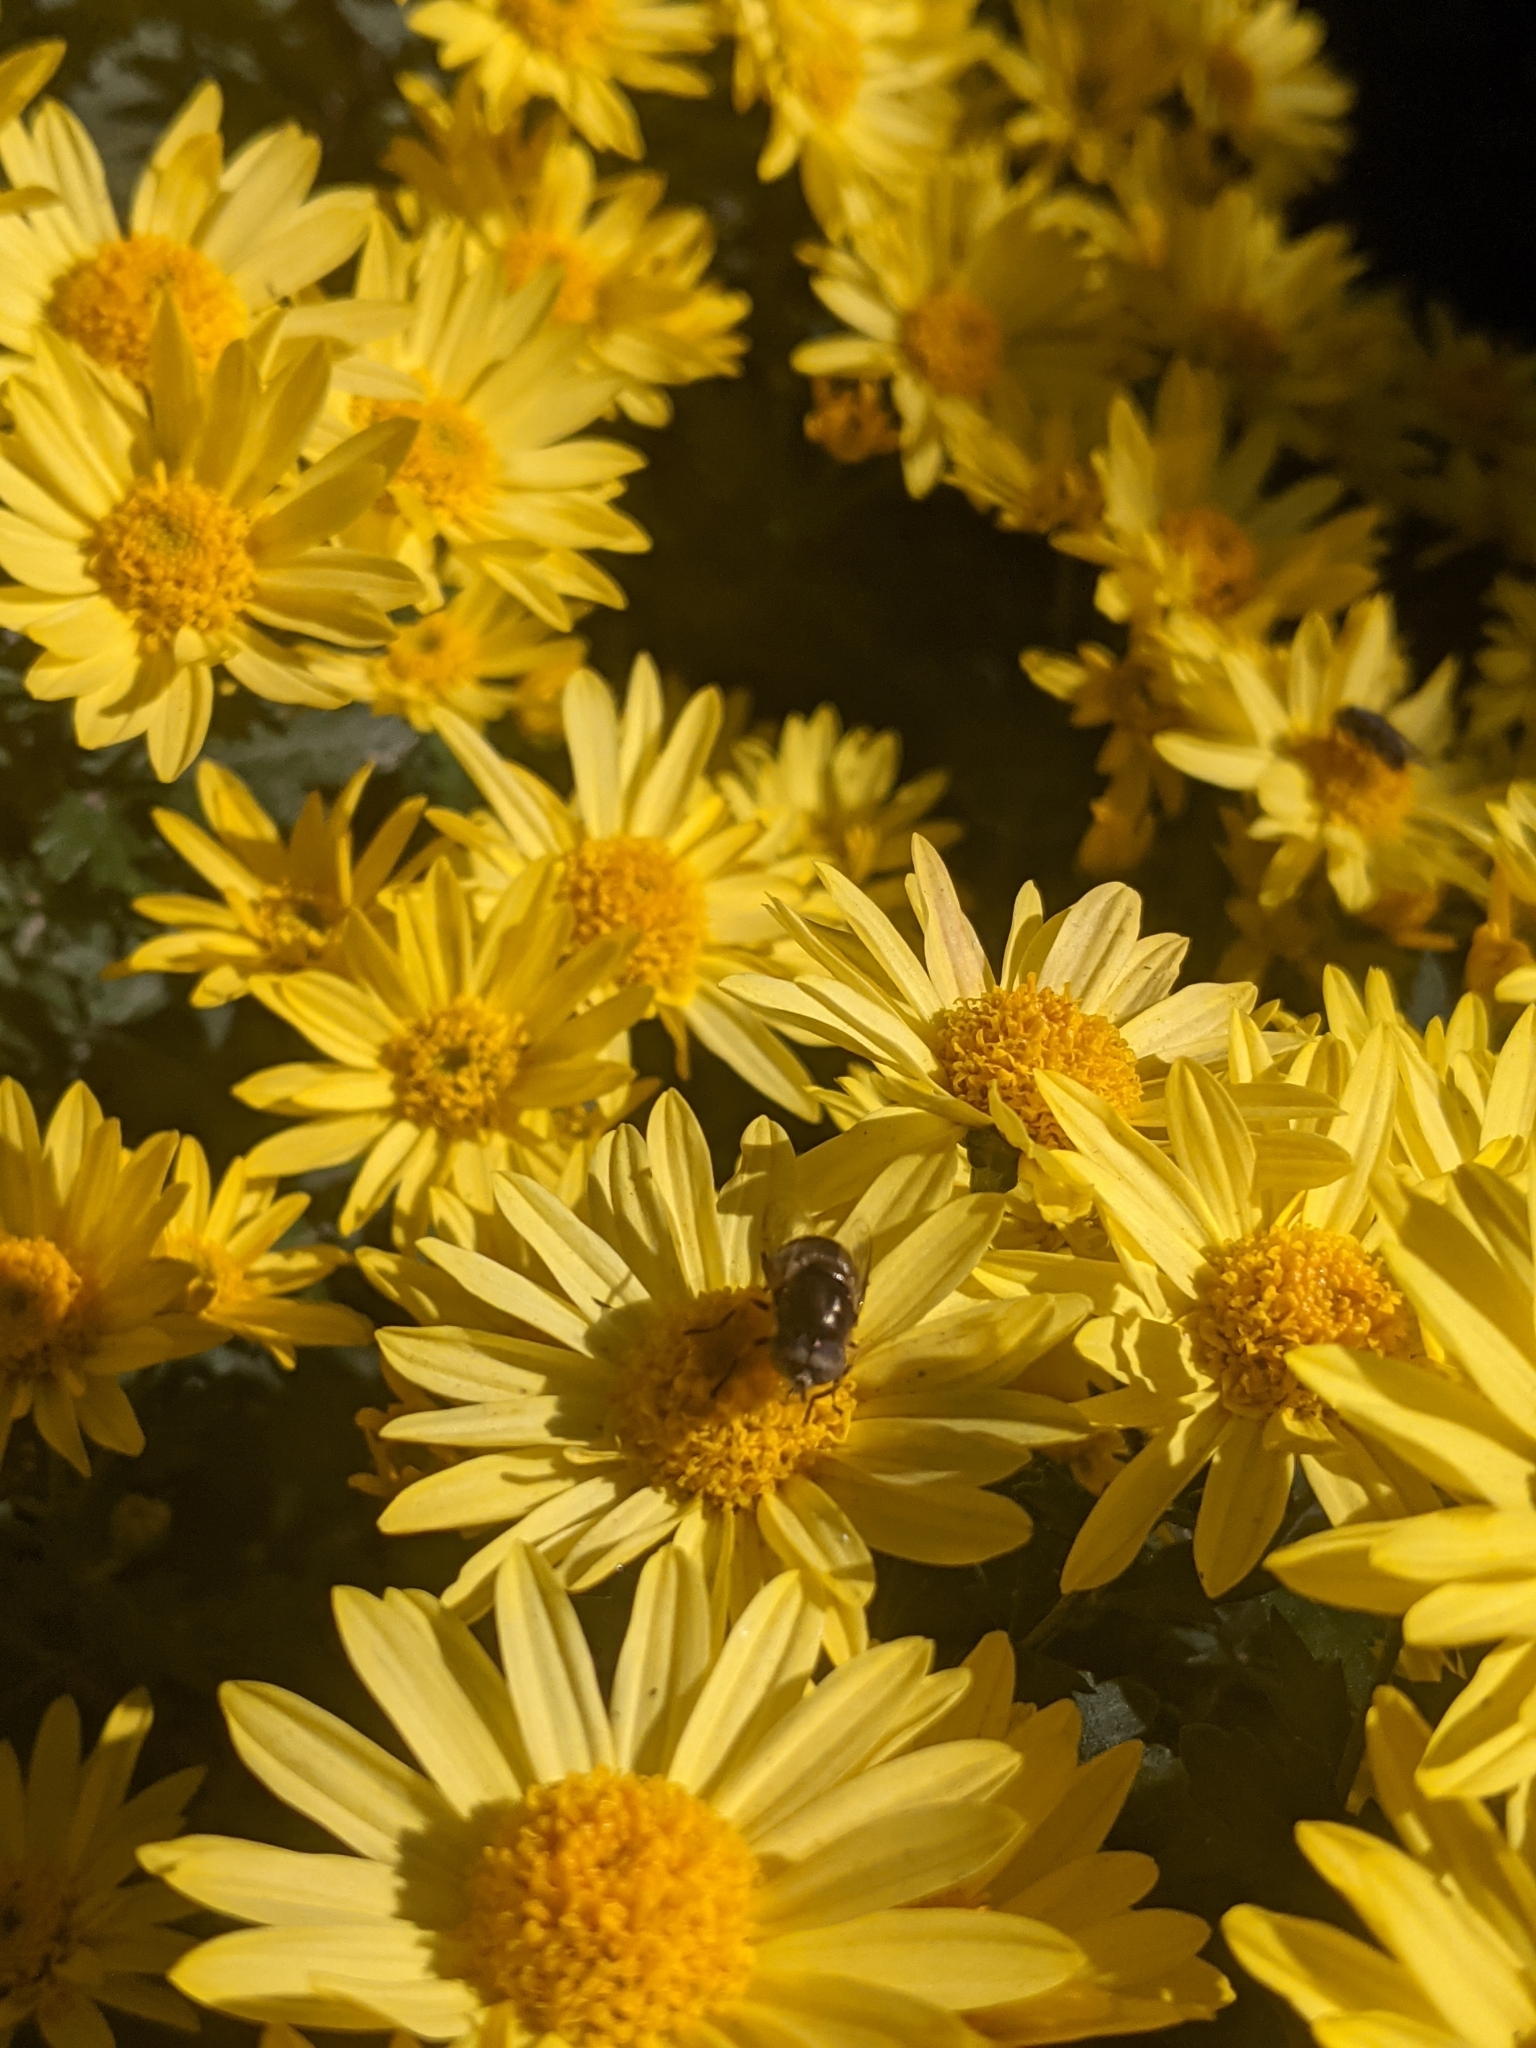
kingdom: Animalia
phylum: Arthropoda
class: Insecta
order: Diptera
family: Syrphidae
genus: Eristalinus
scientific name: Eristalinus aeneus
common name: Syrphid fly
